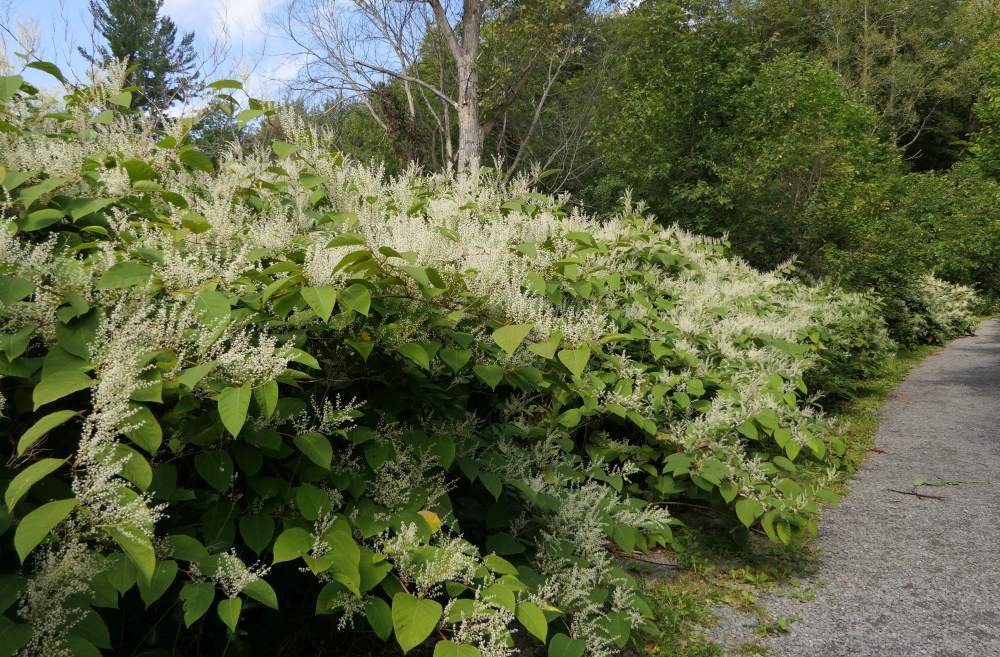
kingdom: Plantae
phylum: Tracheophyta
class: Magnoliopsida
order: Caryophyllales
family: Polygonaceae
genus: Reynoutria
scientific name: Reynoutria japonica
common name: Japanese knotweed
